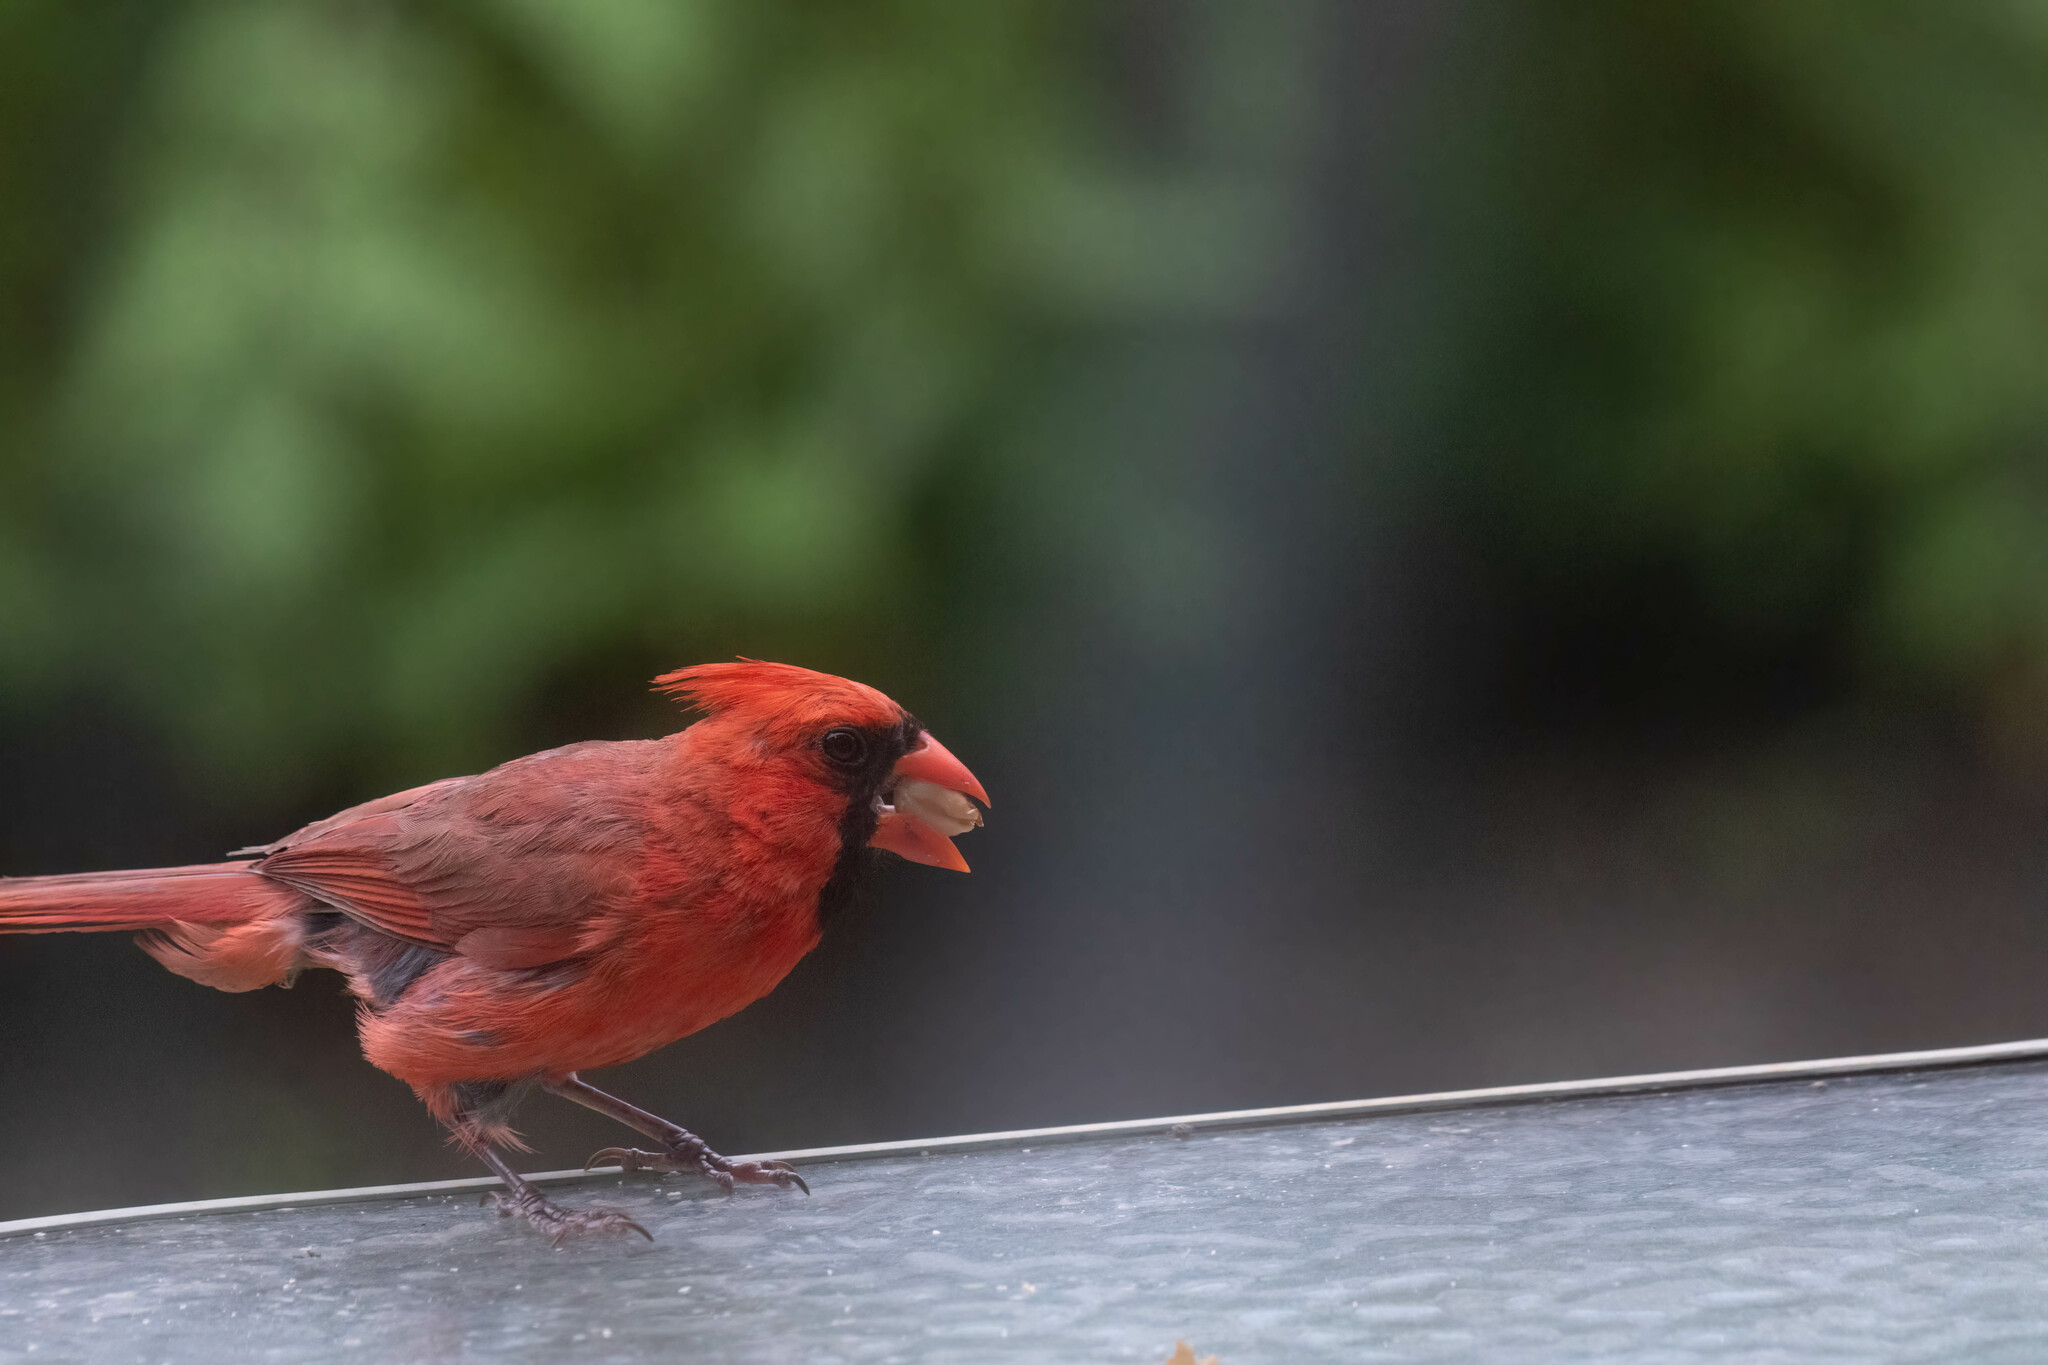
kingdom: Animalia
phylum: Chordata
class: Aves
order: Passeriformes
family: Cardinalidae
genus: Cardinalis
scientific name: Cardinalis cardinalis
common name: Northern cardinal
